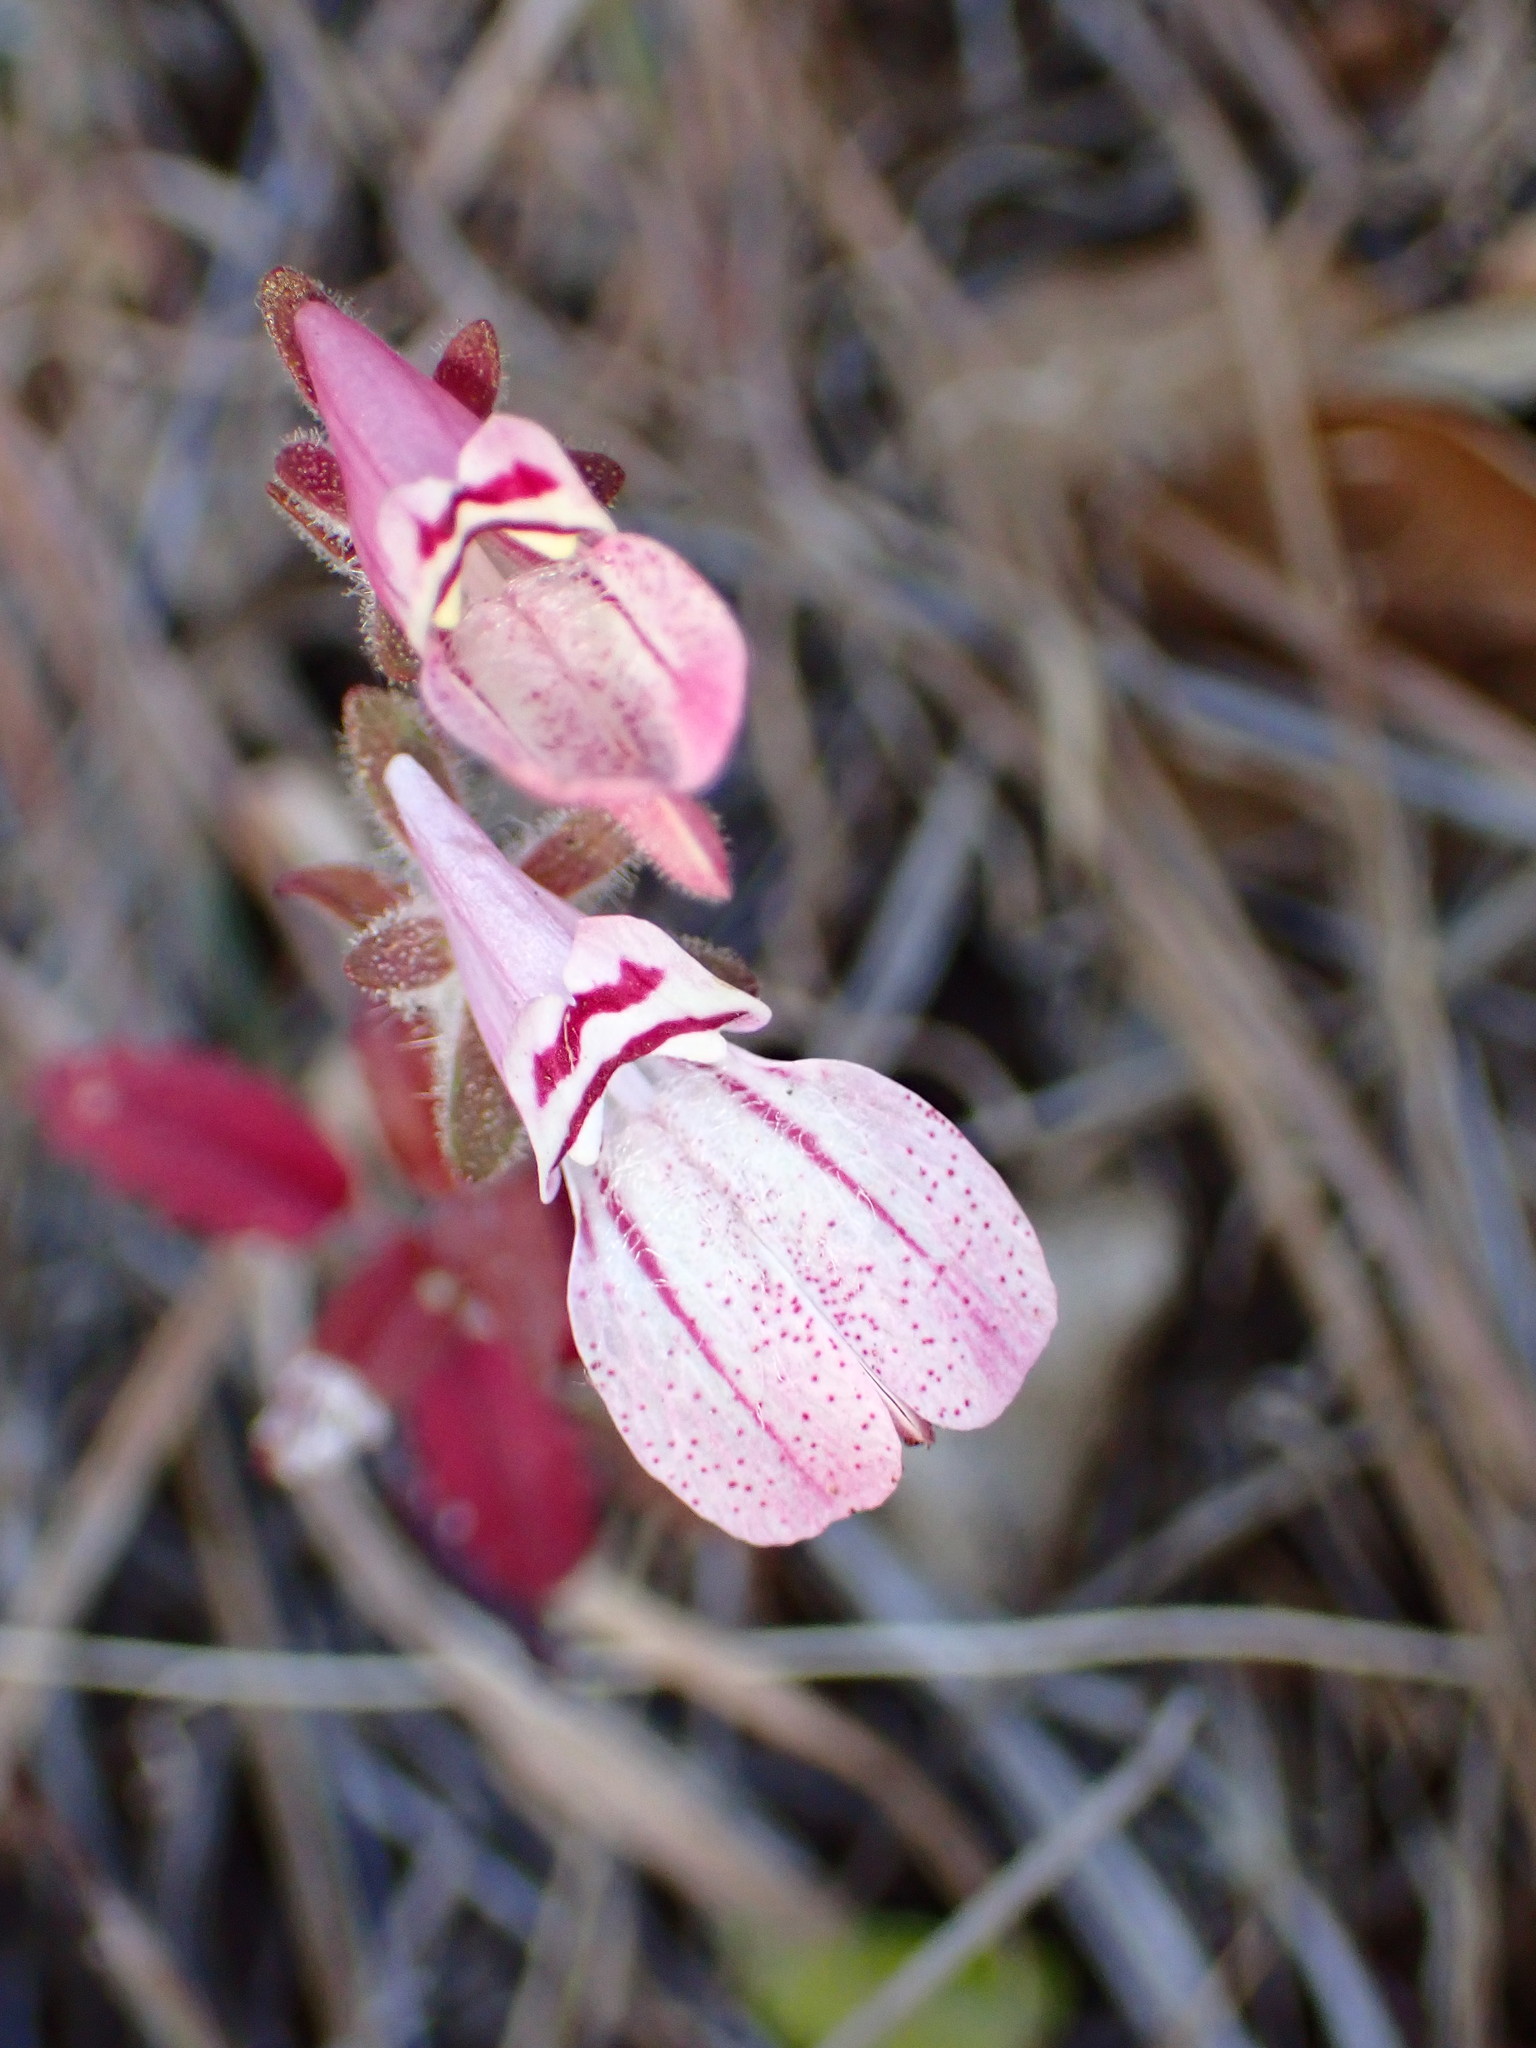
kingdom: Plantae
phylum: Tracheophyta
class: Magnoliopsida
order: Lamiales
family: Plantaginaceae
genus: Collinsia
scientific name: Collinsia tinctoria
